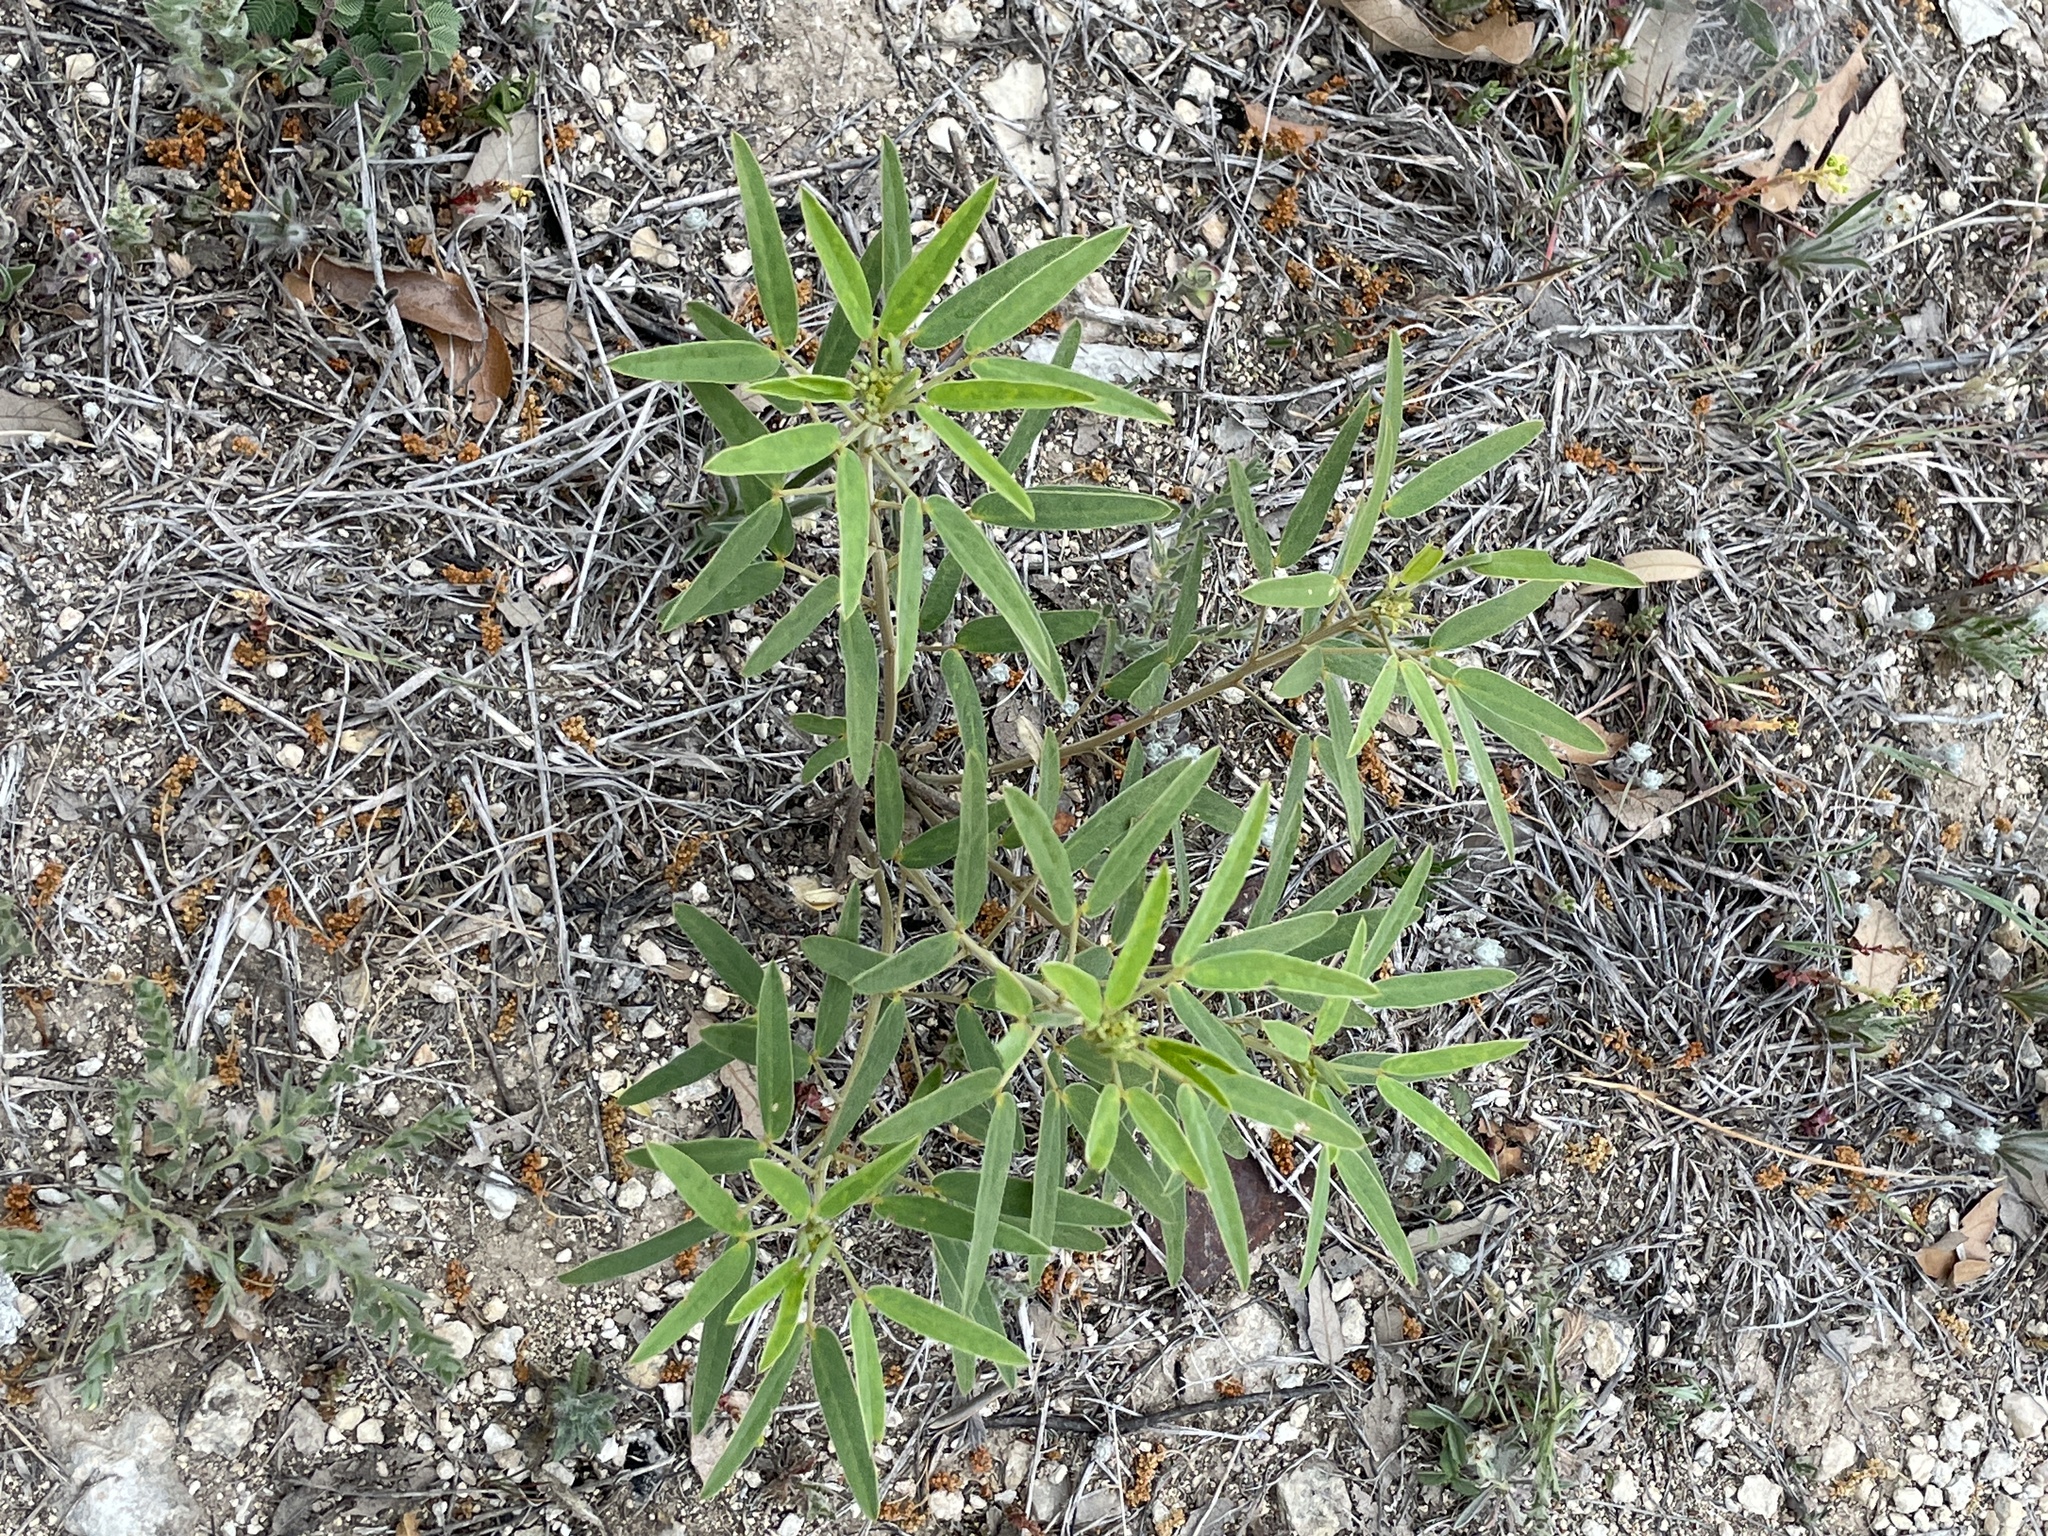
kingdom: Plantae
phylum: Tracheophyta
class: Magnoliopsida
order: Fabales
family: Fabaceae
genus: Senna
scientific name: Senna roemeriana
